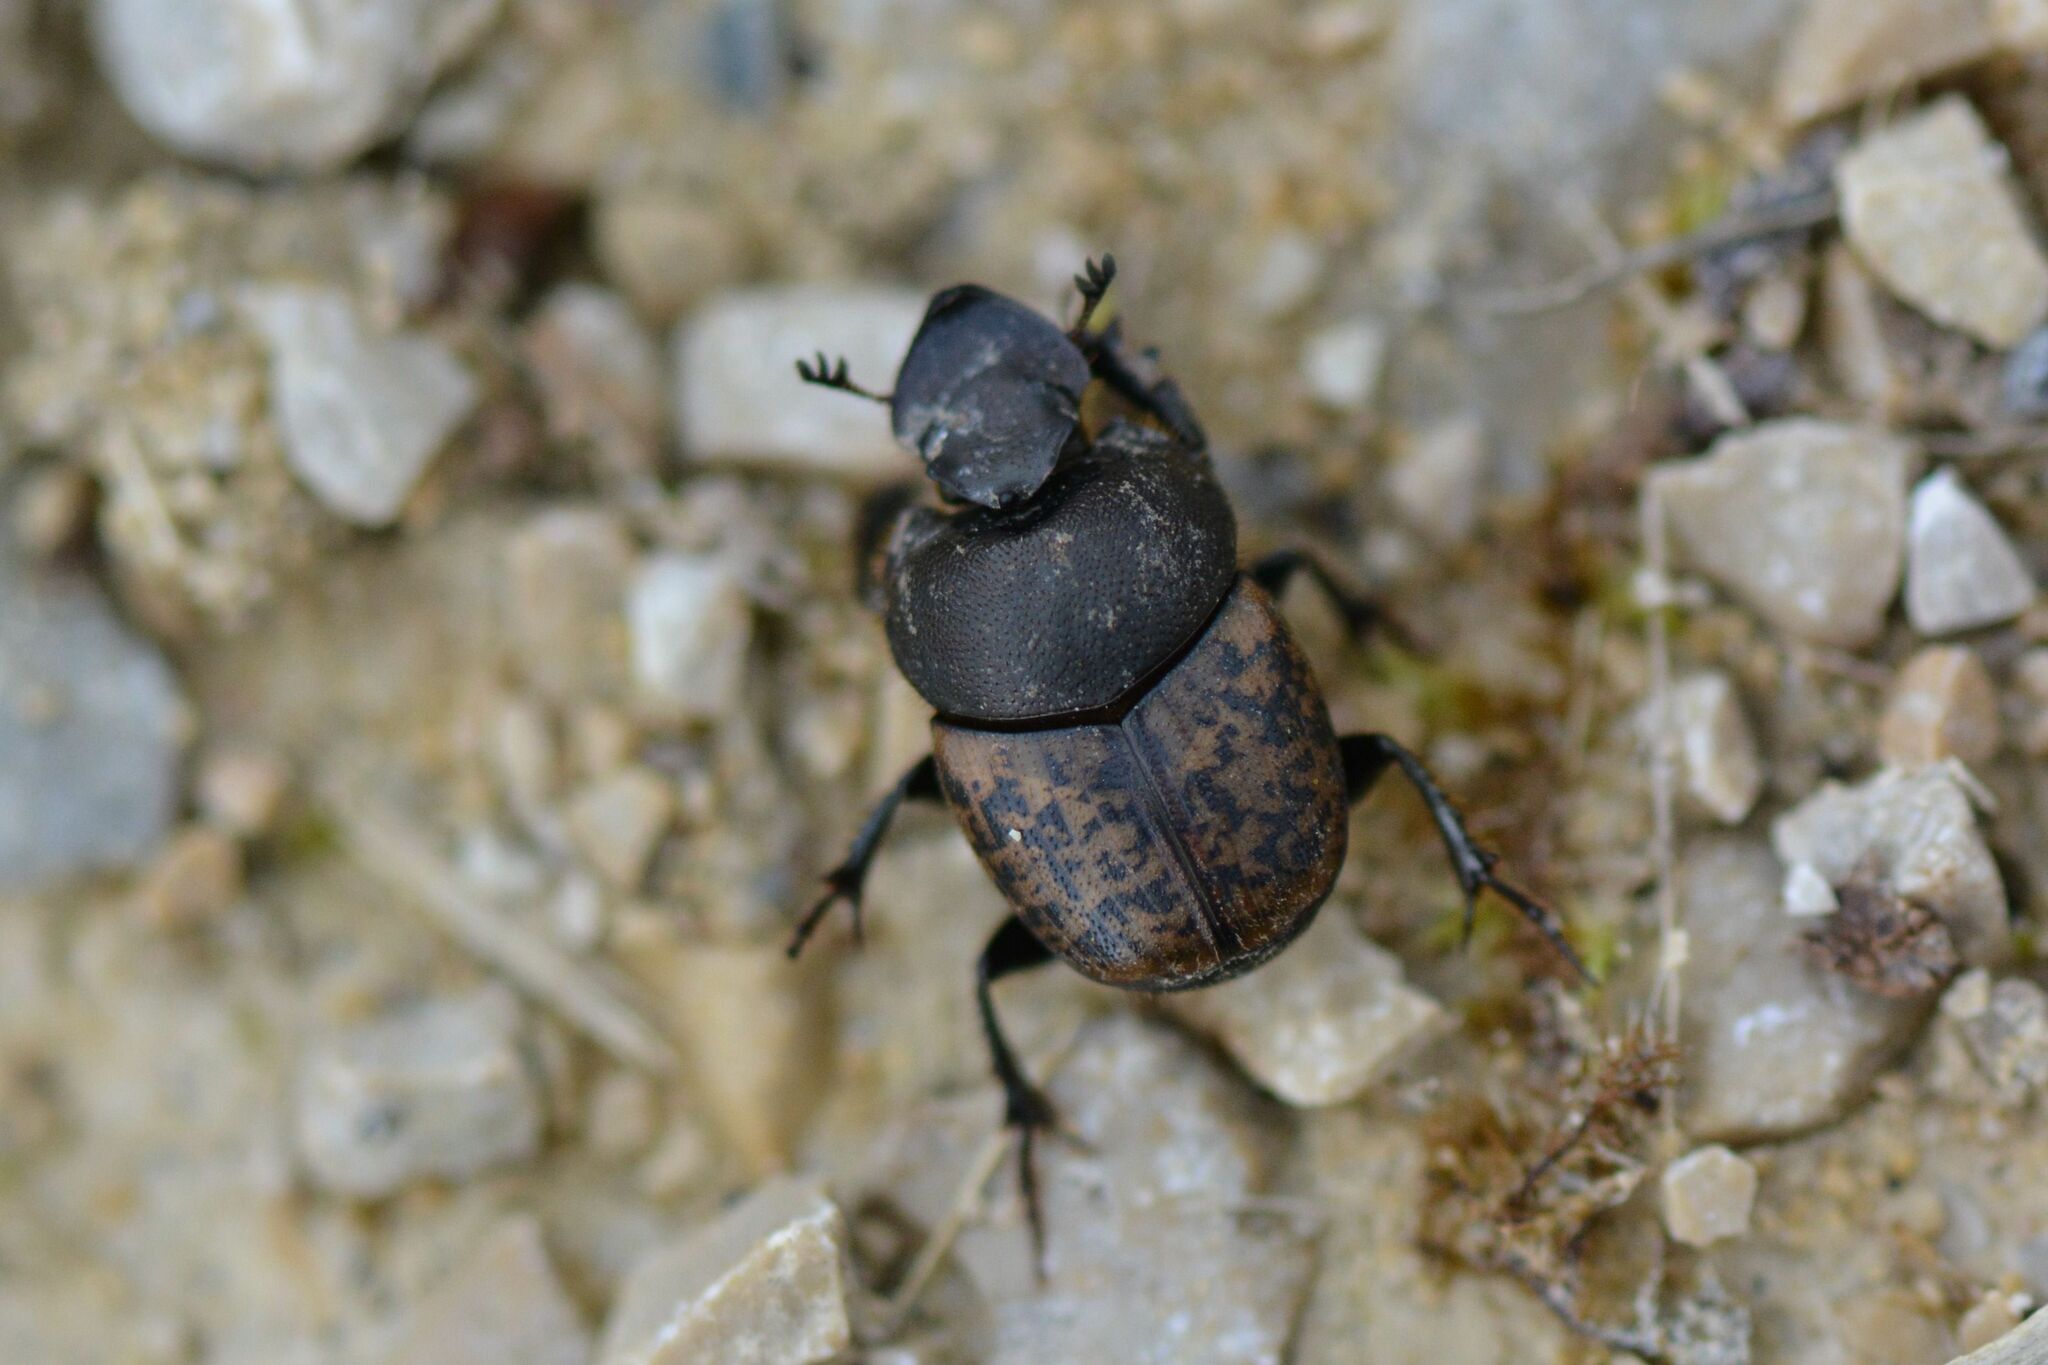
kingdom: Animalia
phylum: Arthropoda
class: Insecta
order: Coleoptera
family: Scarabaeidae
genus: Onthophagus
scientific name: Onthophagus fracticornis
